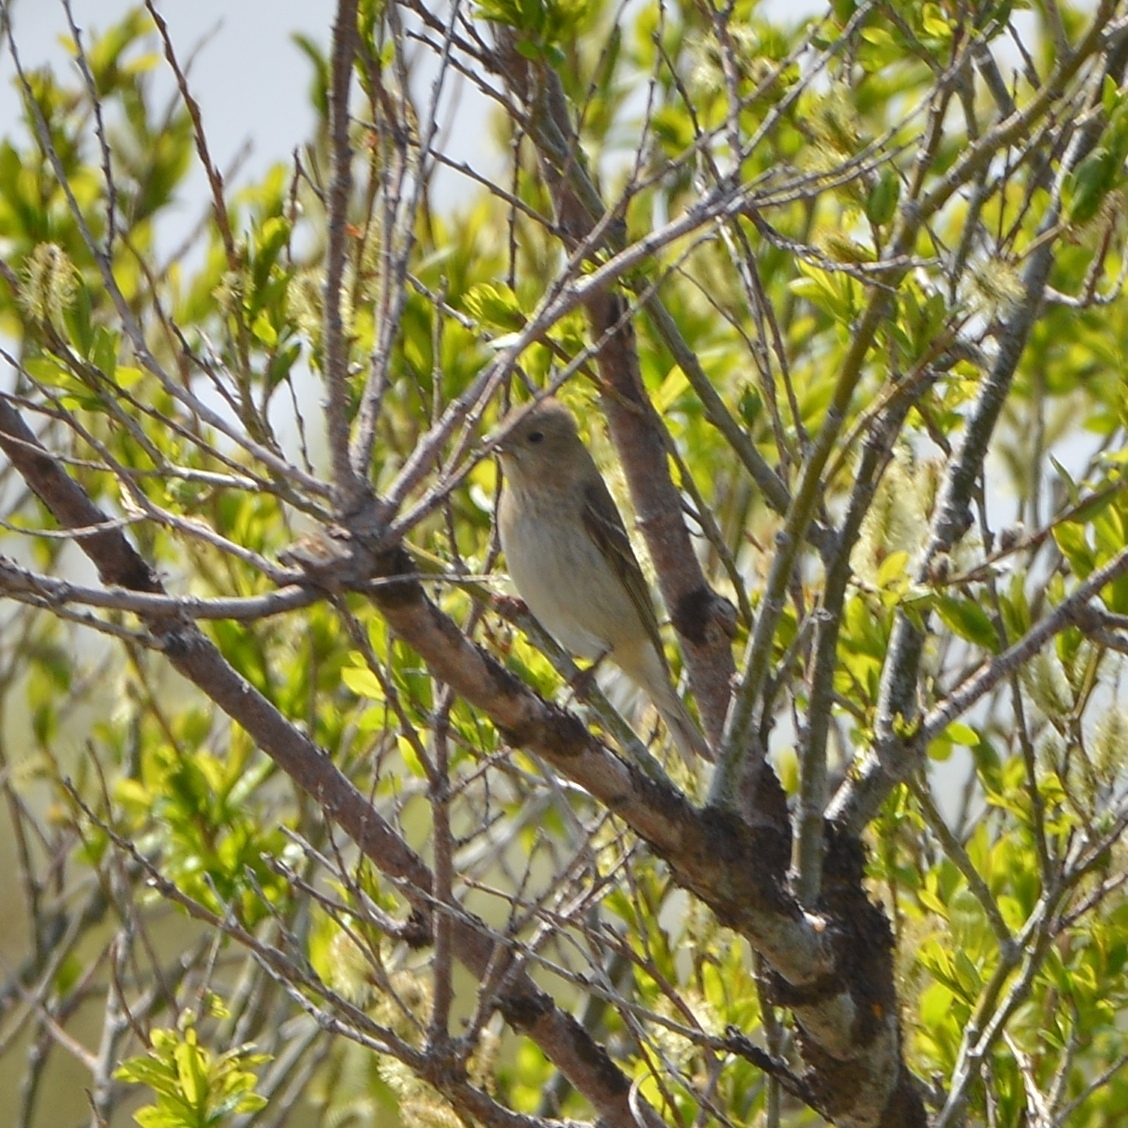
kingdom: Animalia
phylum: Chordata
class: Aves
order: Passeriformes
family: Fringillidae
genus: Carpodacus
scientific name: Carpodacus erythrinus
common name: Common rosefinch
